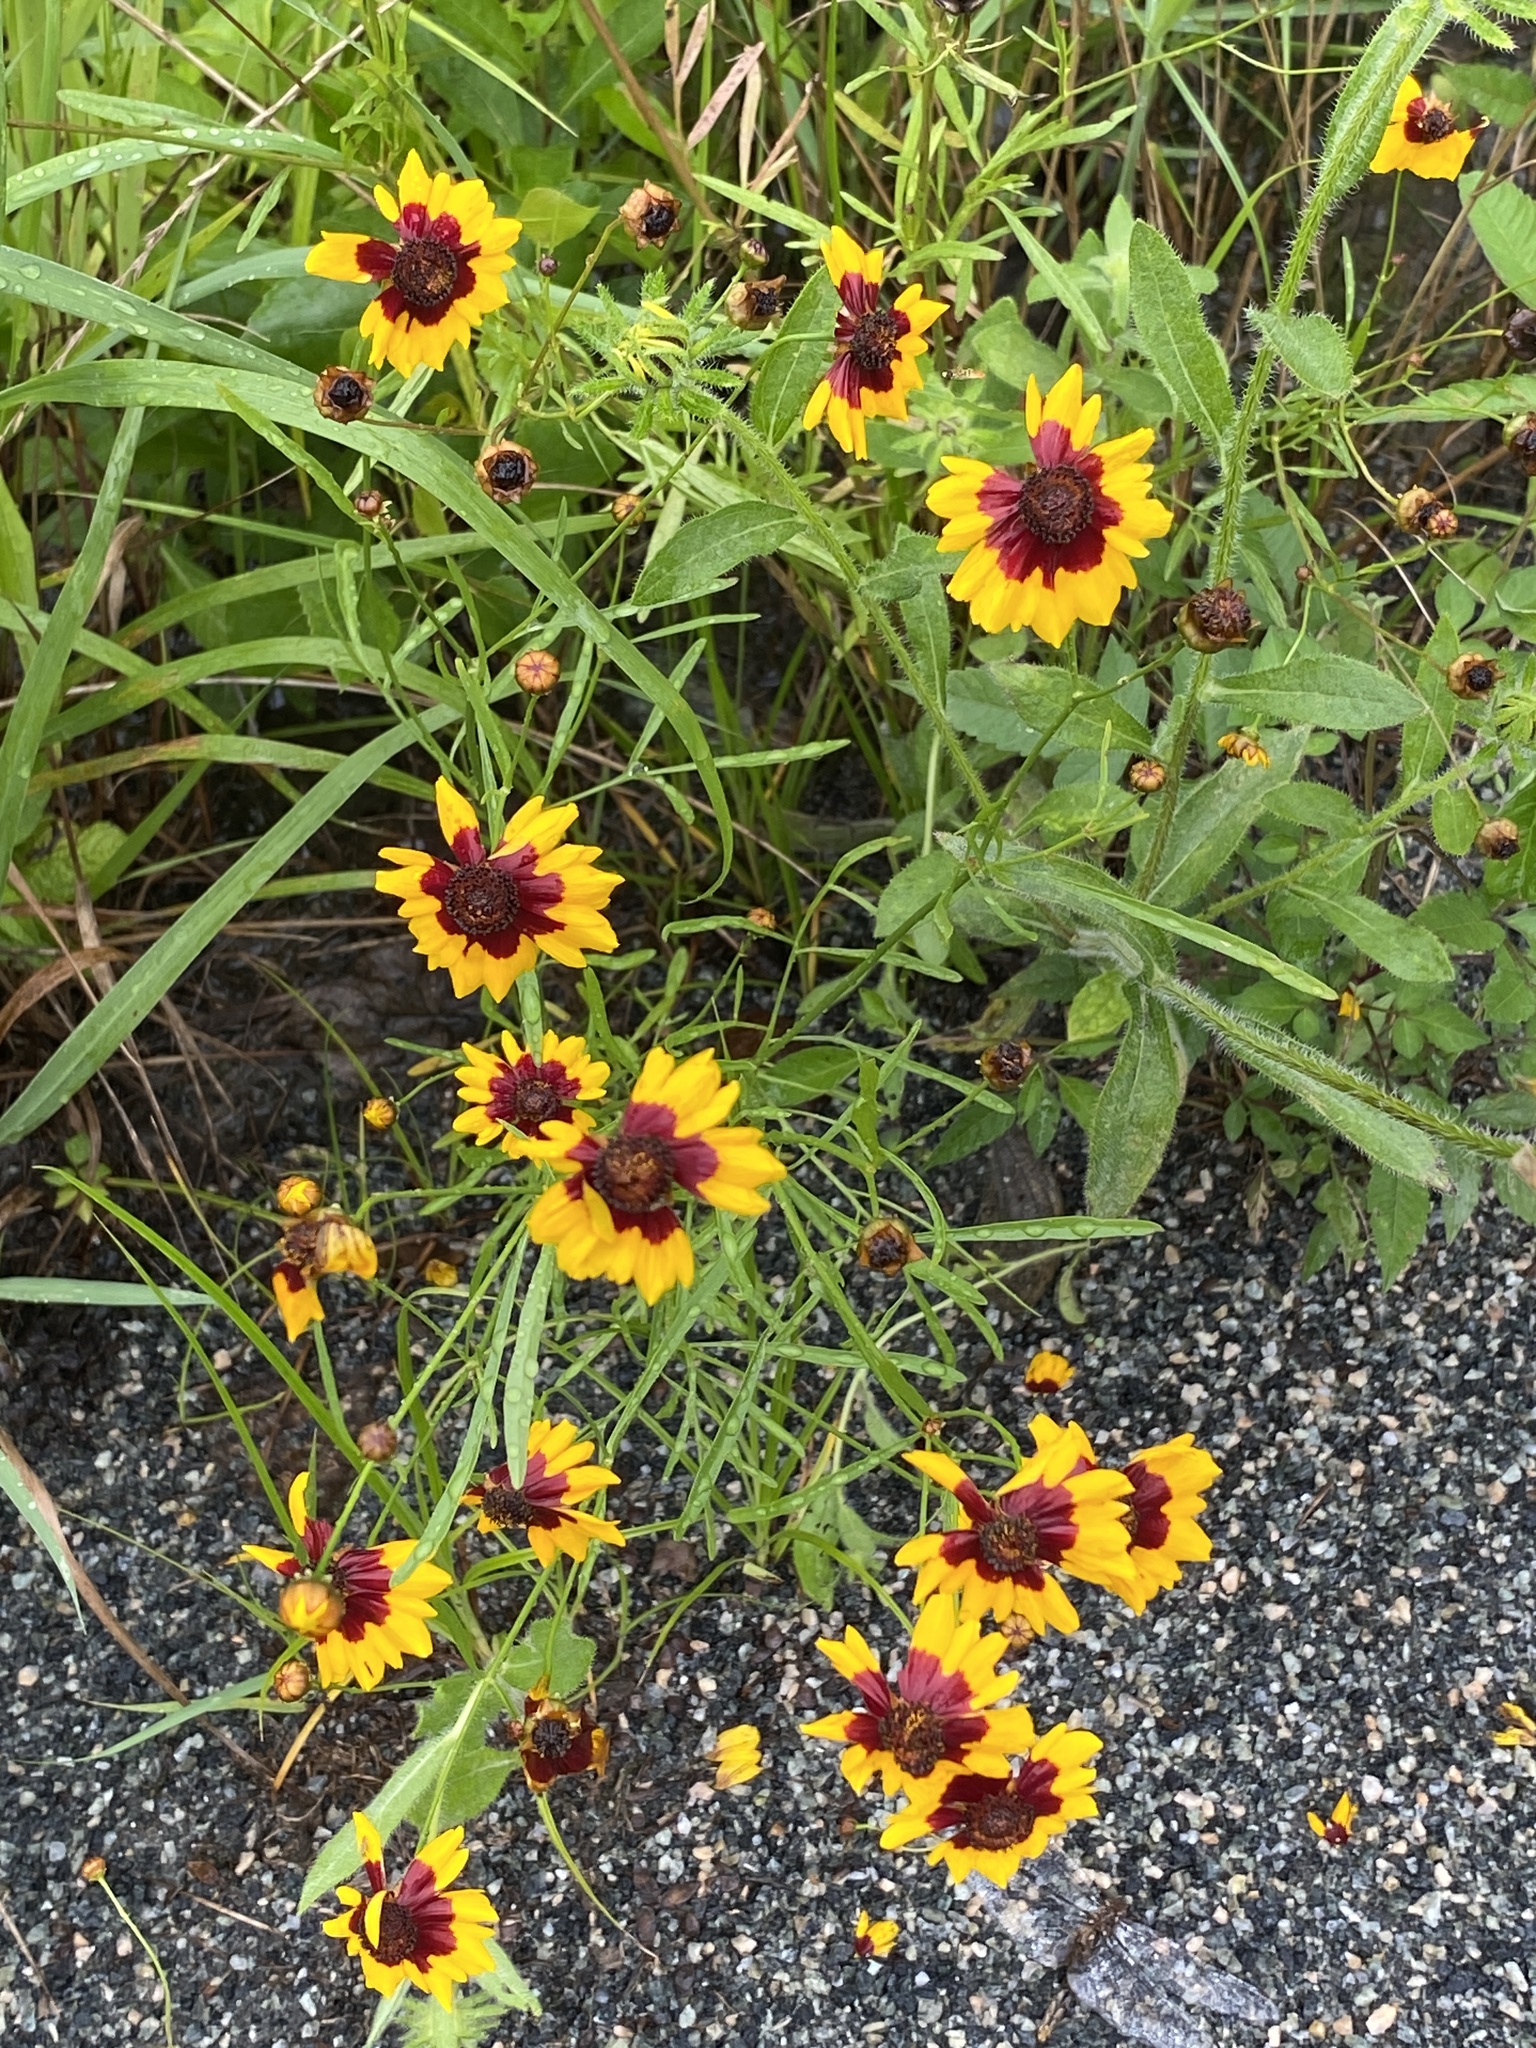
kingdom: Plantae
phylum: Tracheophyta
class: Magnoliopsida
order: Asterales
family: Asteraceae
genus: Coreopsis
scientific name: Coreopsis tinctoria
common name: Garden tickseed
